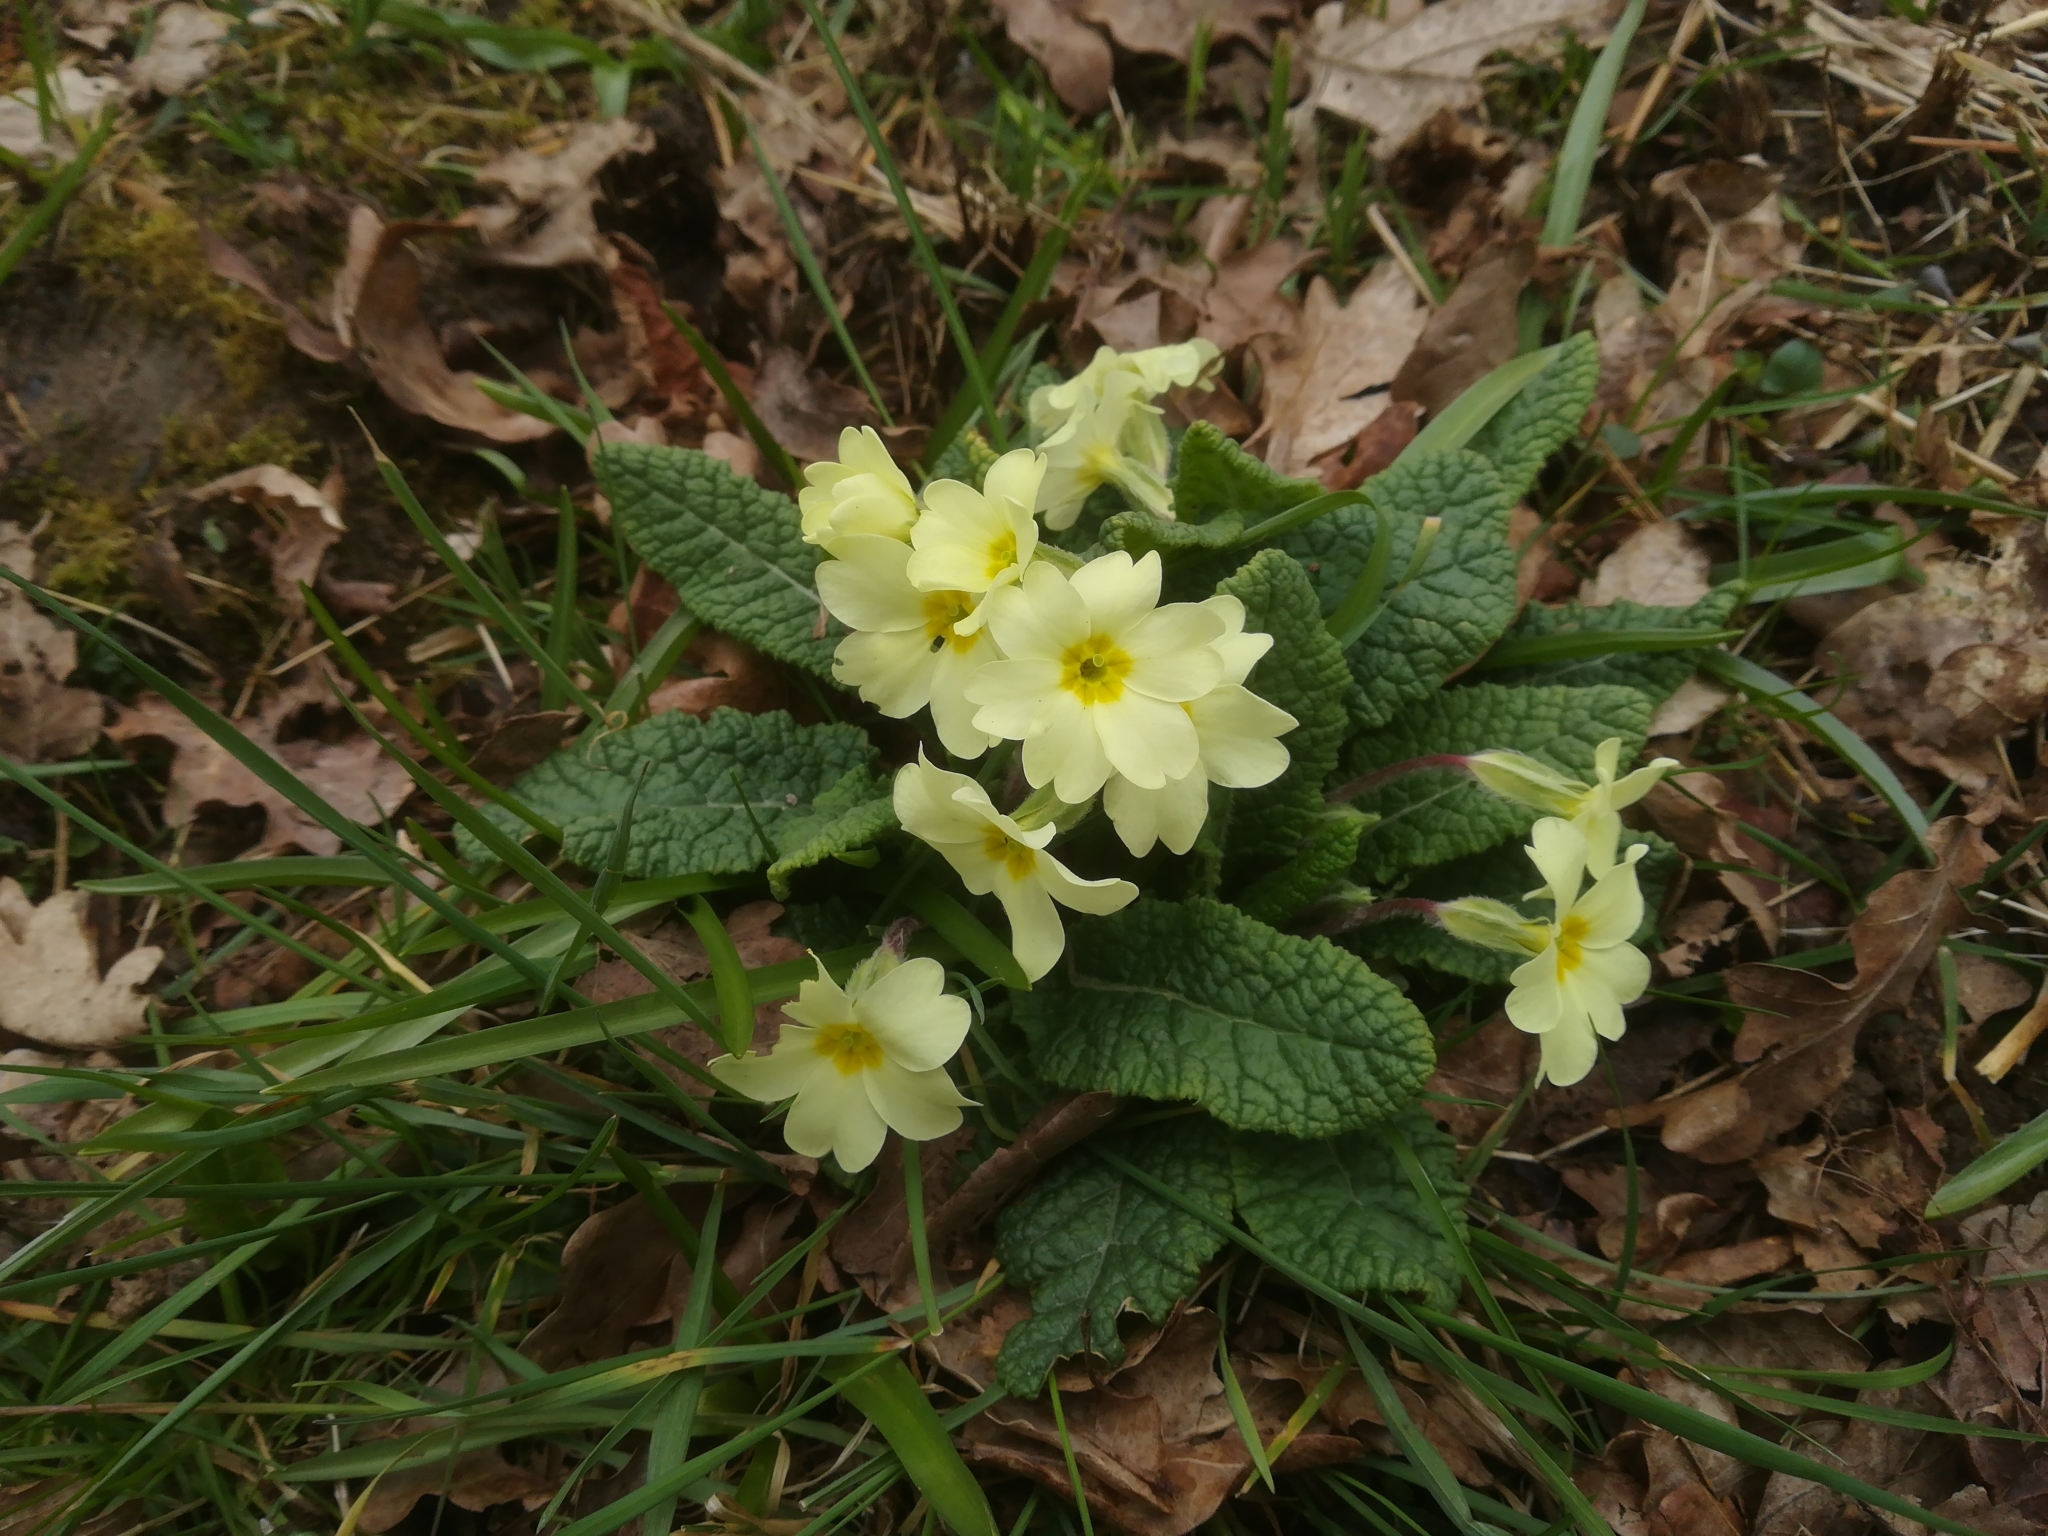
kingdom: Plantae
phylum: Tracheophyta
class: Magnoliopsida
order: Ericales
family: Primulaceae
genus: Primula
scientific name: Primula vulgaris
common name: Primrose
